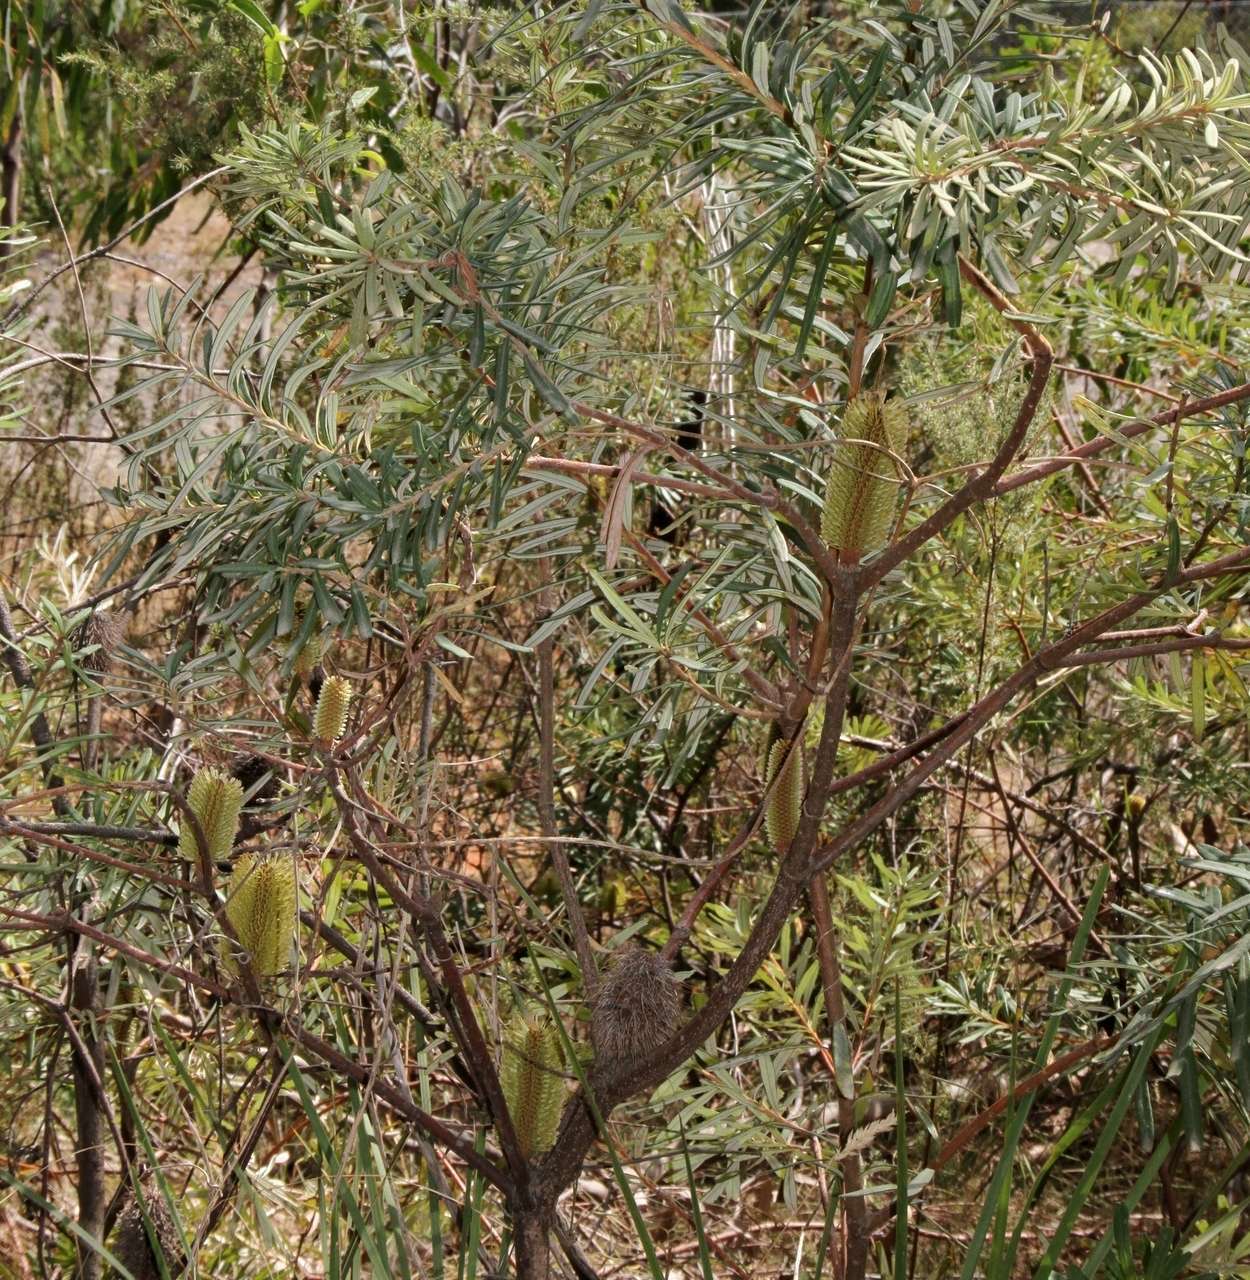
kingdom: Plantae
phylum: Tracheophyta
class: Magnoliopsida
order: Proteales
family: Proteaceae
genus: Banksia
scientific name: Banksia marginata
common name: Silver banksia
